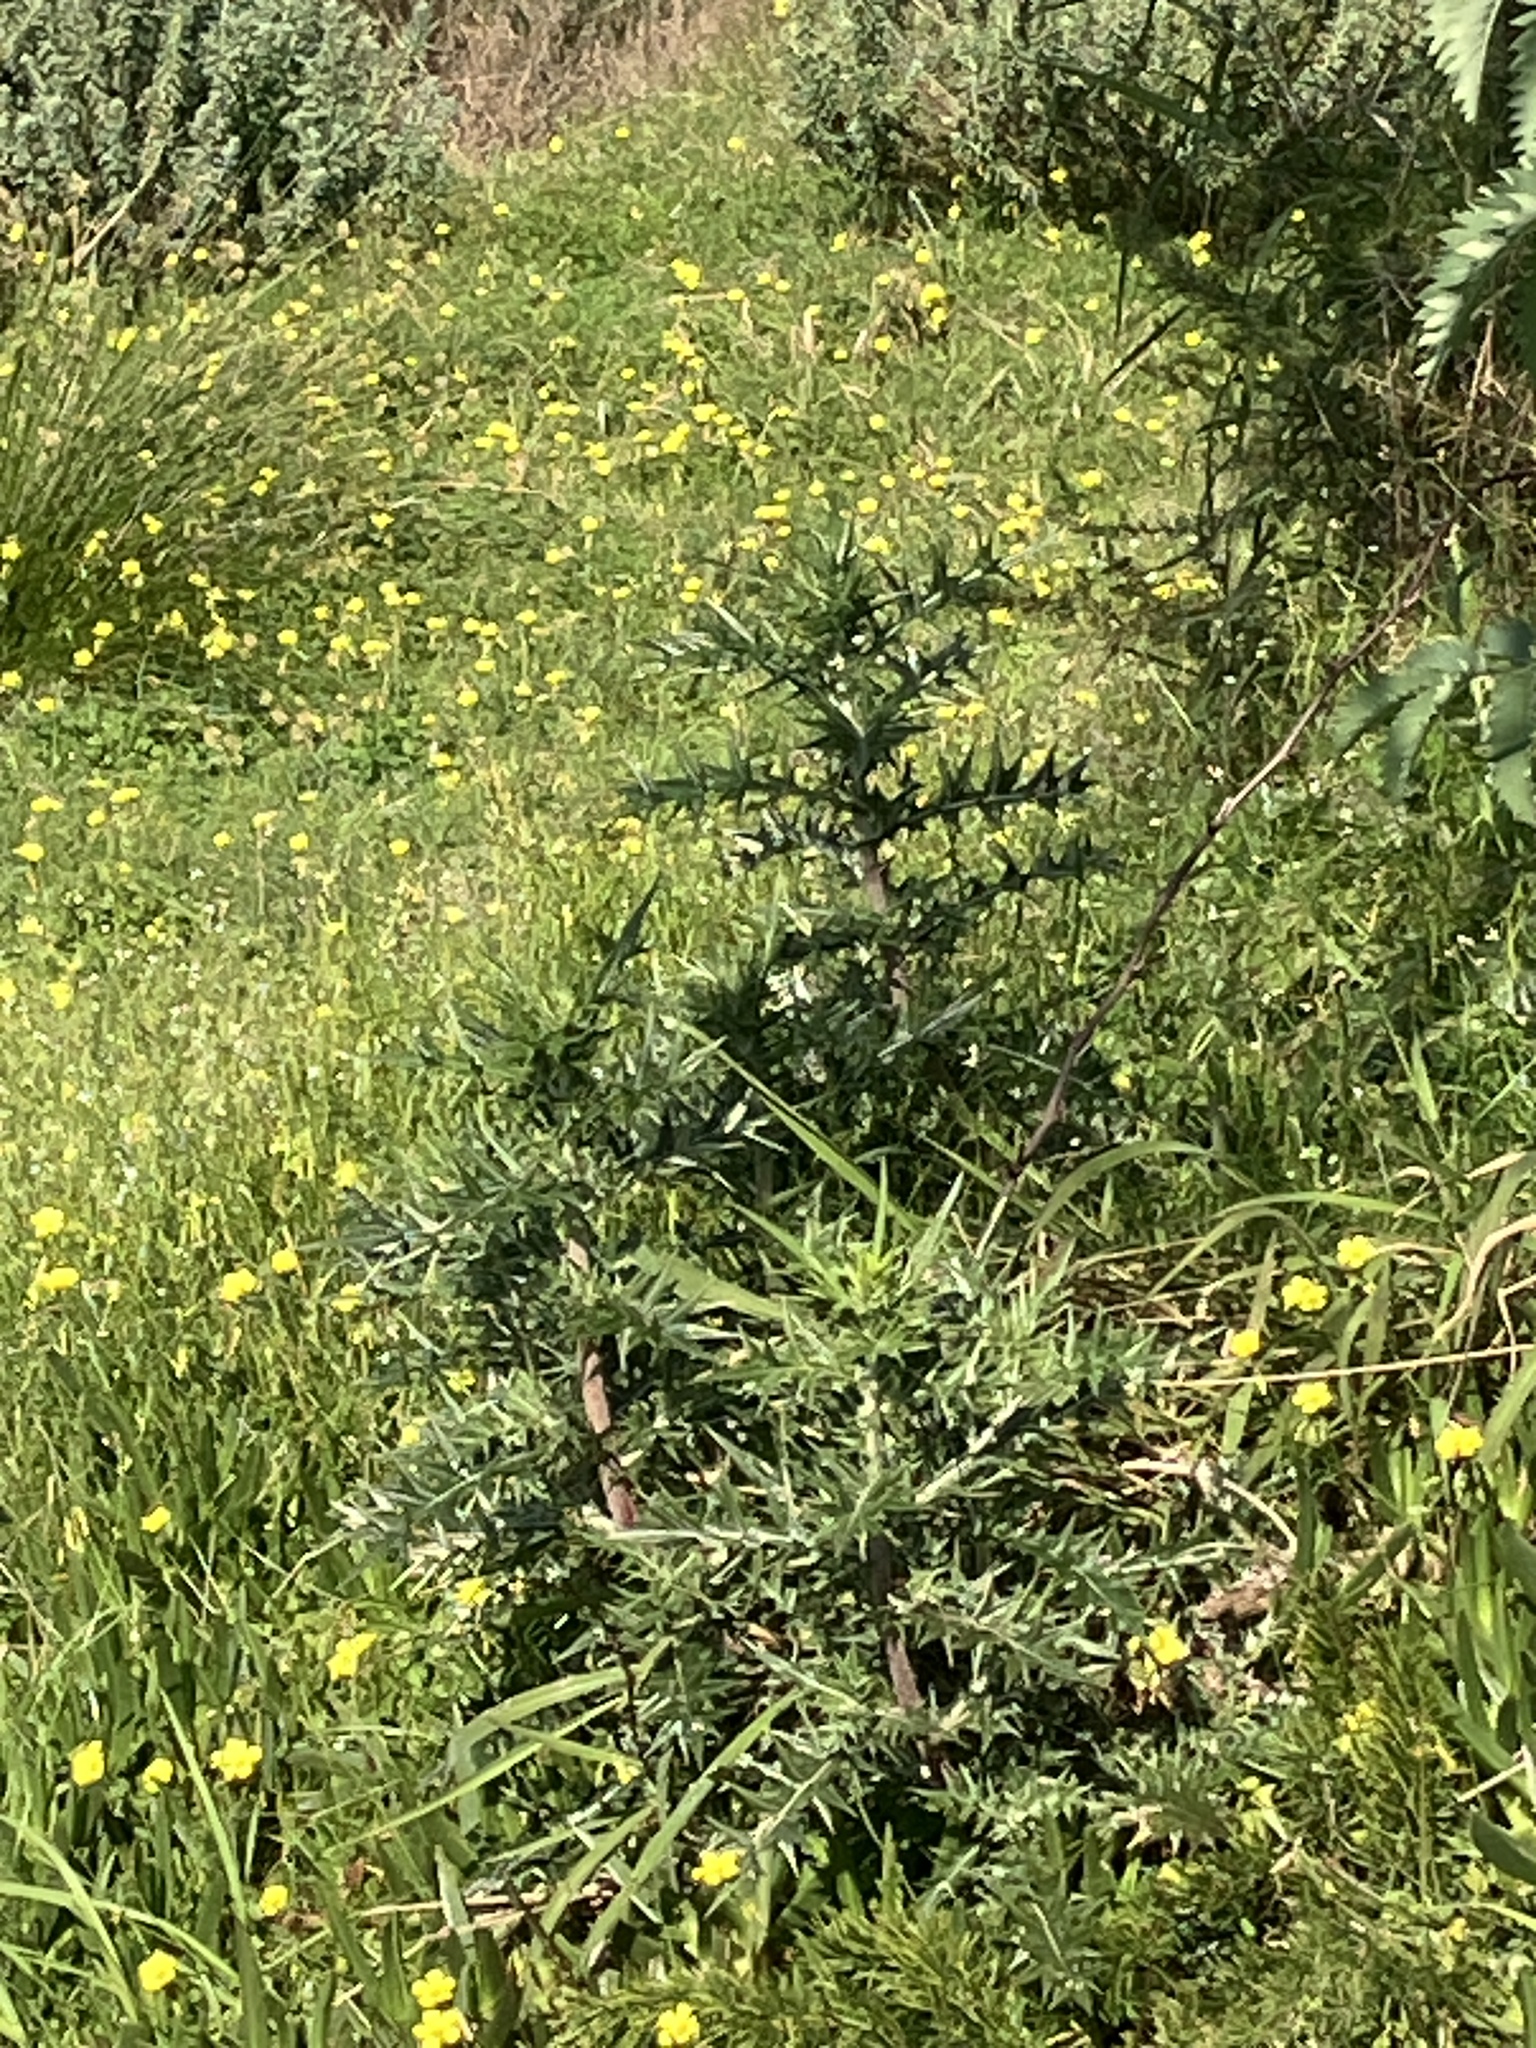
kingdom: Plantae
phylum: Tracheophyta
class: Magnoliopsida
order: Geraniales
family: Melianthaceae
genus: Melianthus
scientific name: Melianthus major
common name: Honey-flower
